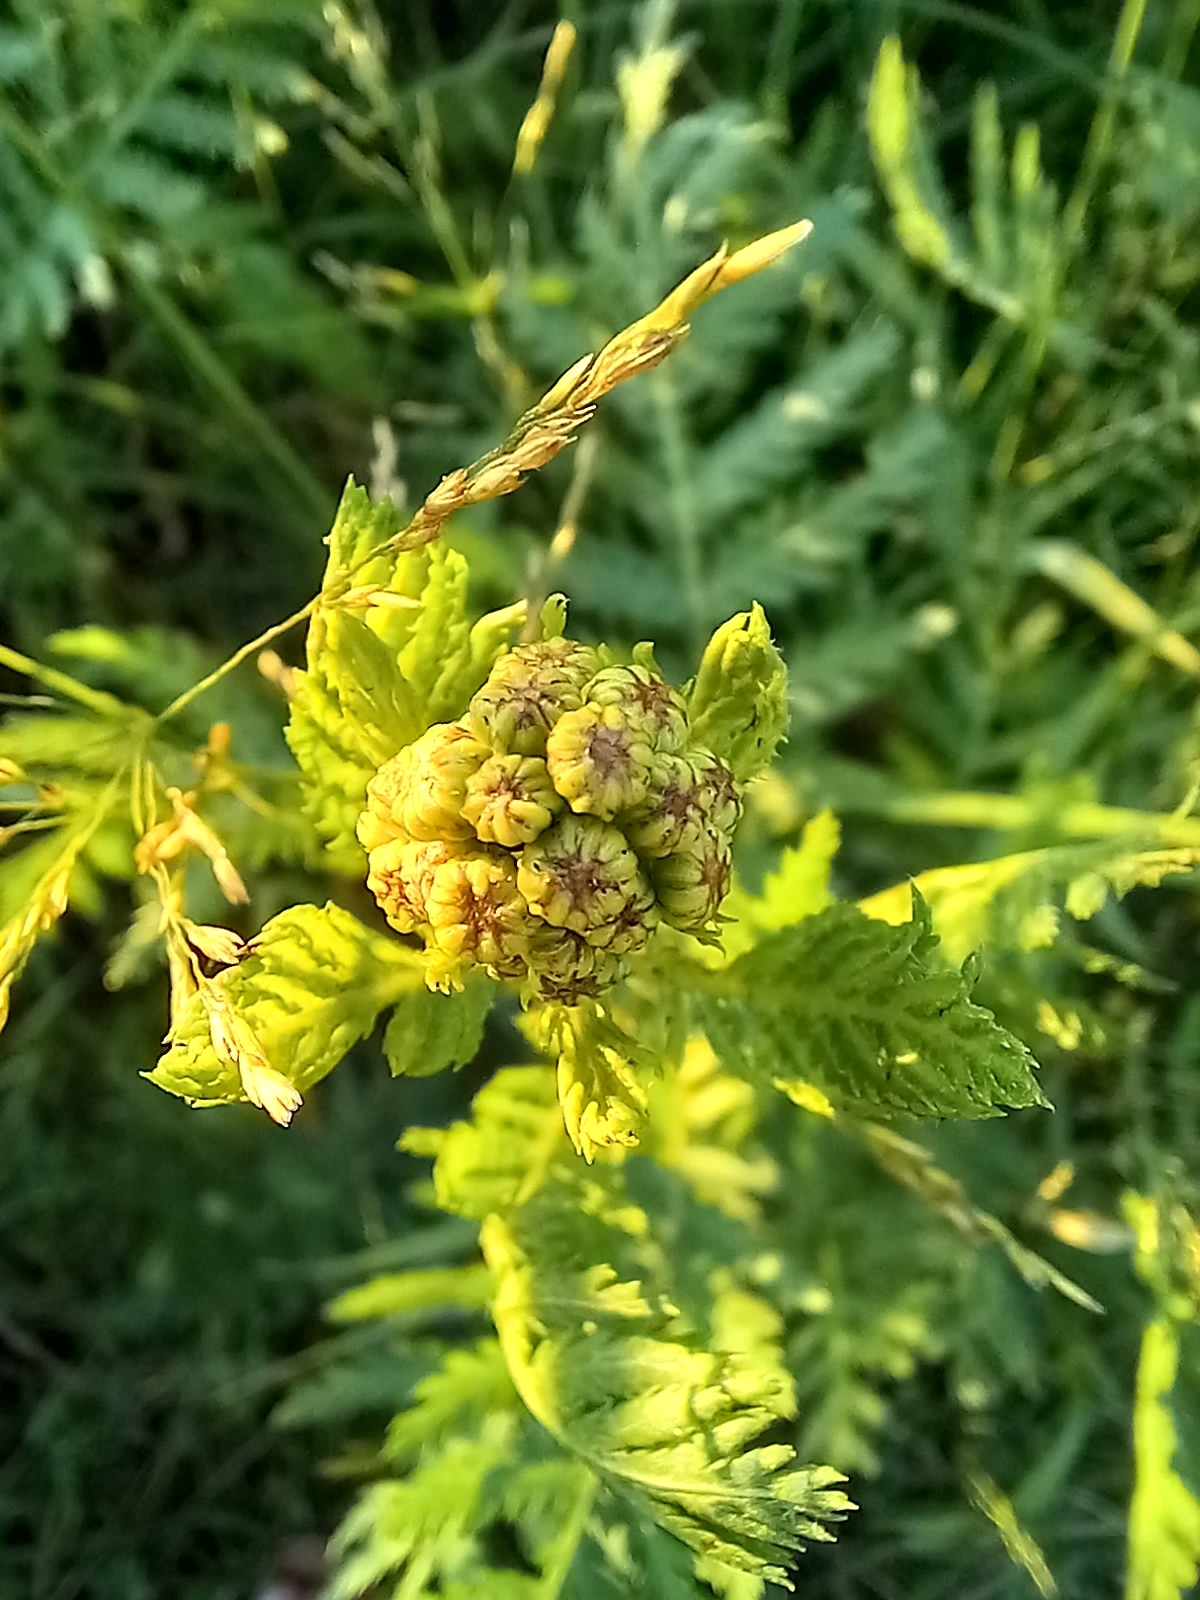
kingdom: Plantae
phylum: Tracheophyta
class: Magnoliopsida
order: Asterales
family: Asteraceae
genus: Tanacetum
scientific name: Tanacetum vulgare
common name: Common tansy
